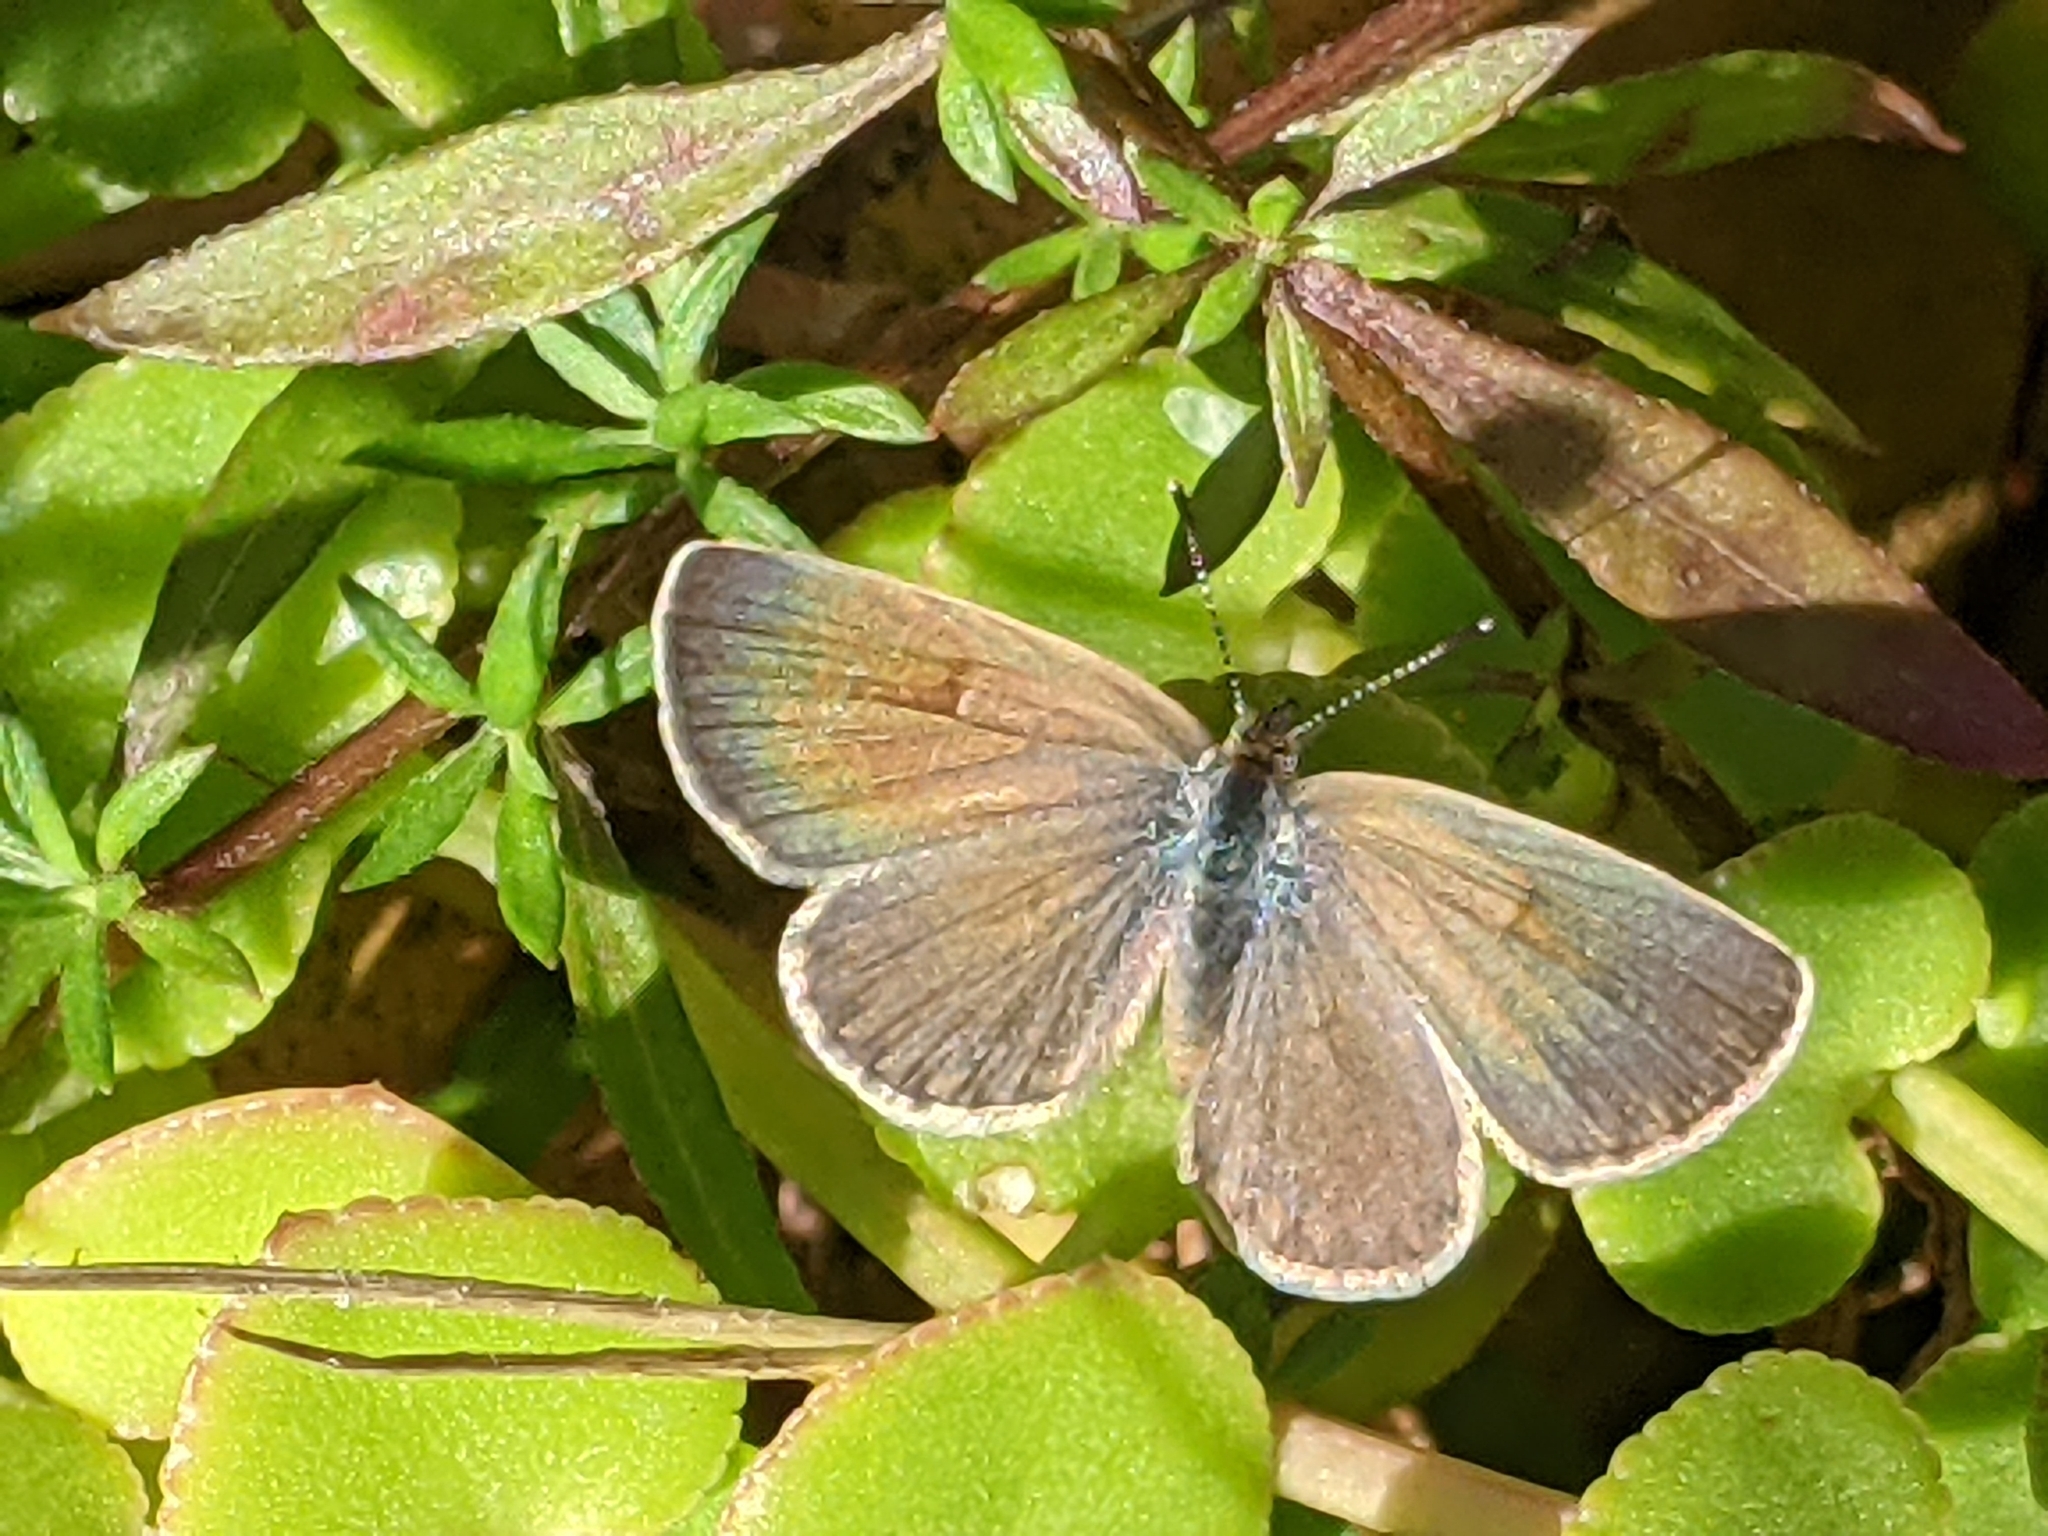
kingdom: Animalia
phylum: Arthropoda
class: Insecta
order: Lepidoptera
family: Lycaenidae
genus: Zizeeria
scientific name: Zizeeria knysna
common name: African grass blue
